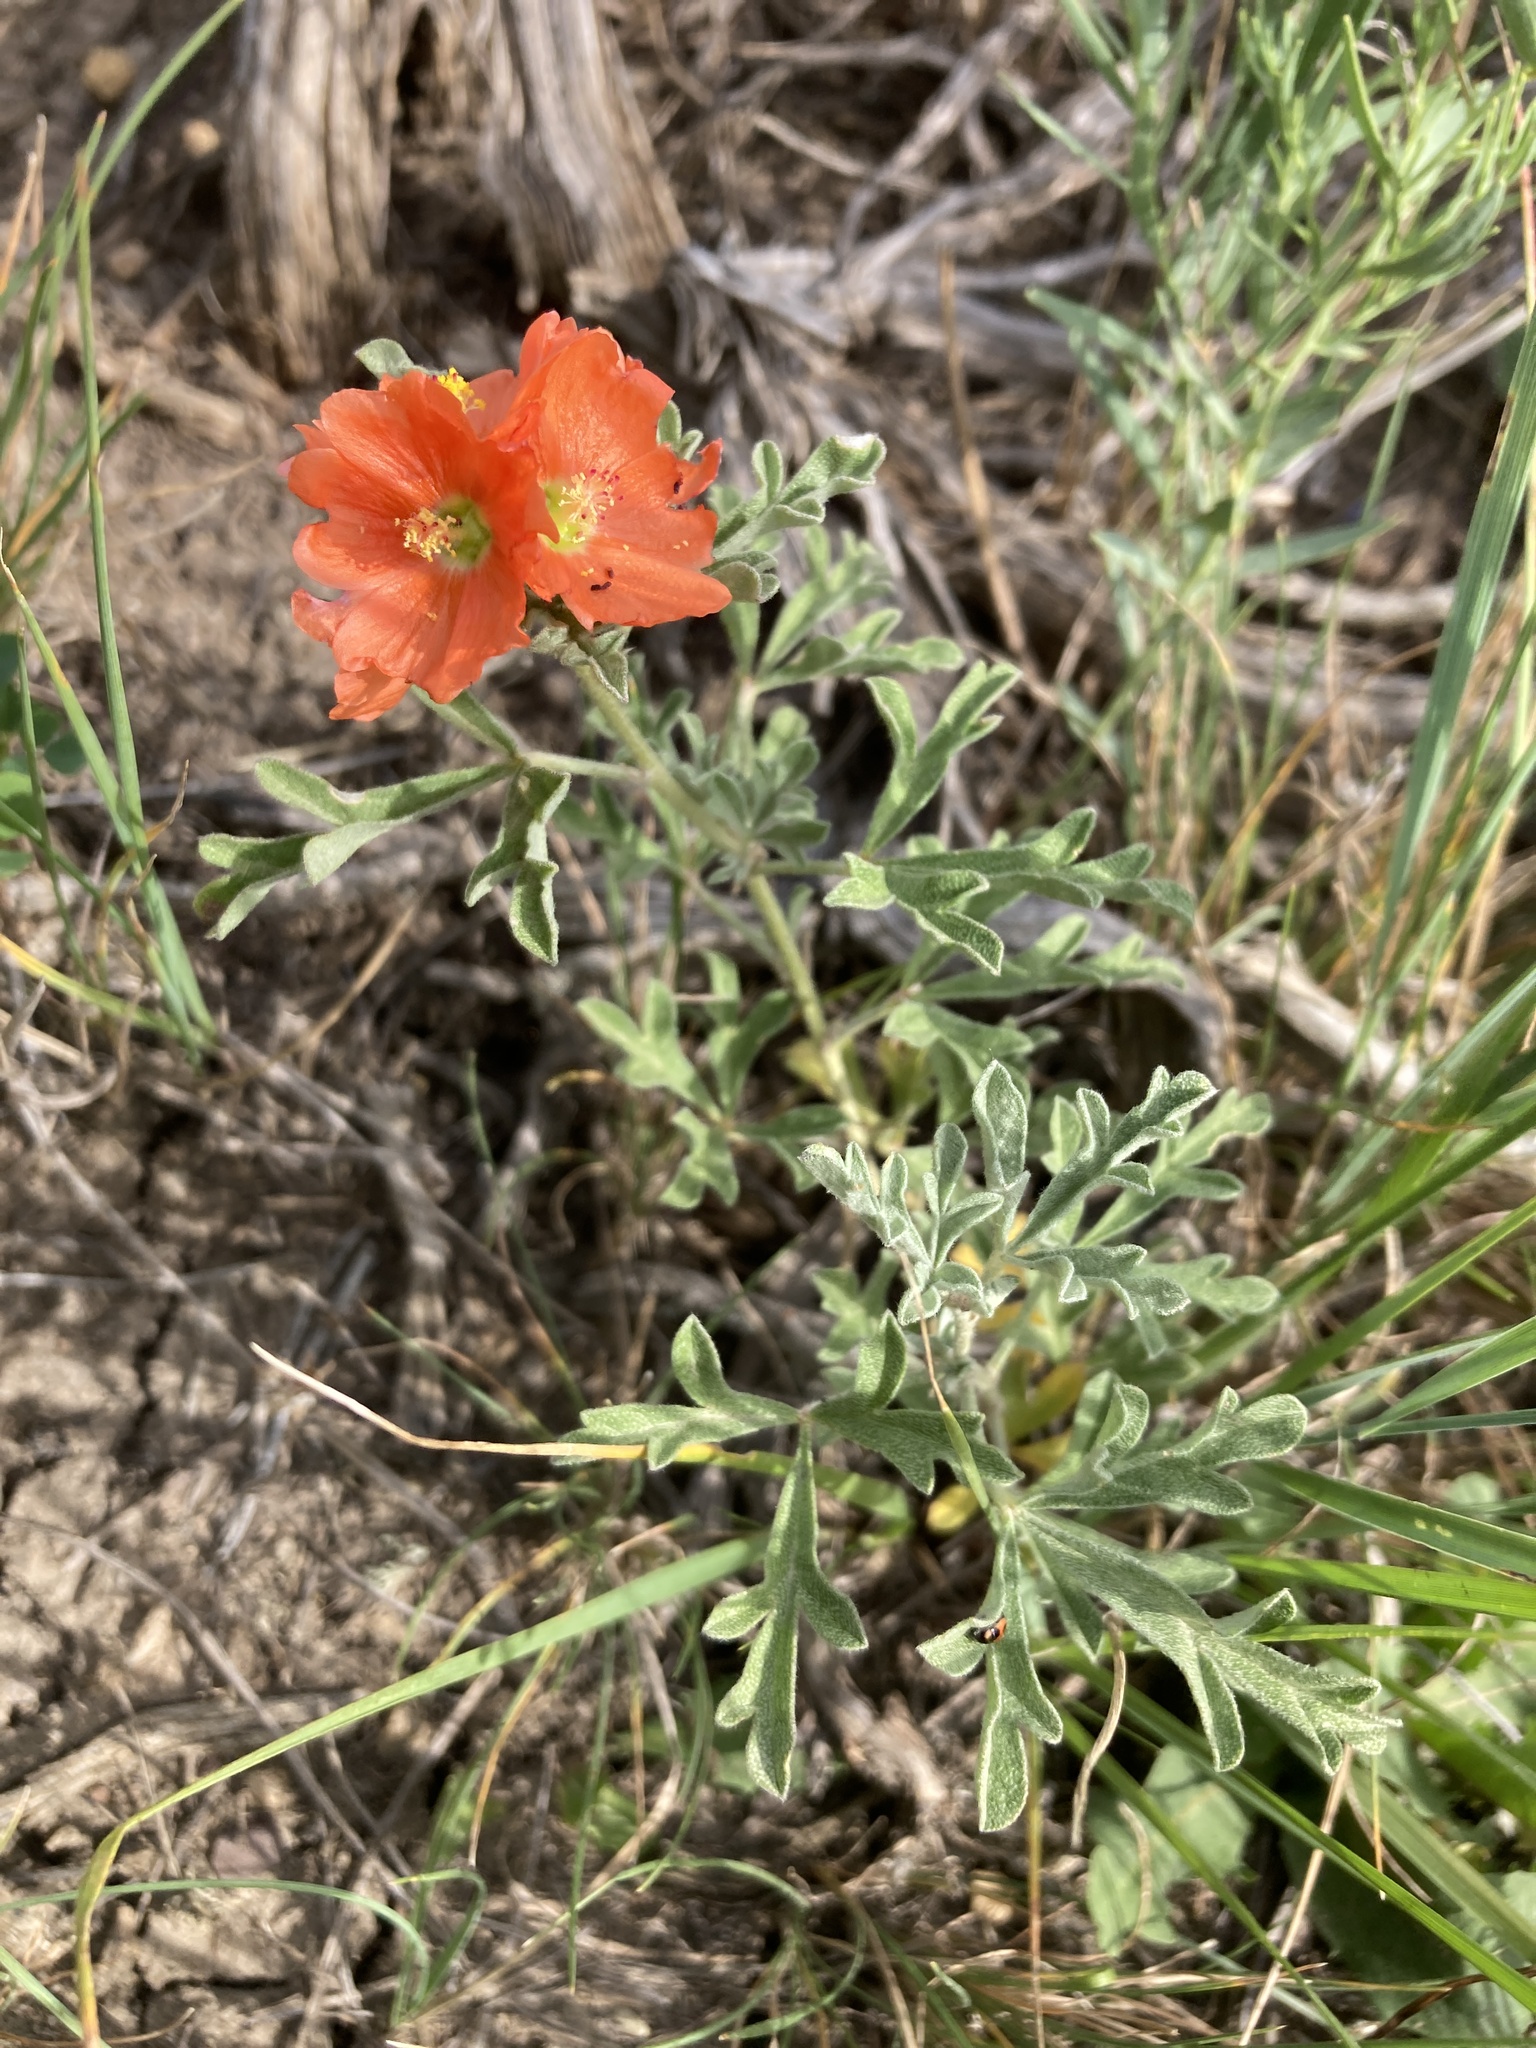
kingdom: Plantae
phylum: Tracheophyta
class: Magnoliopsida
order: Malvales
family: Malvaceae
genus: Sphaeralcea
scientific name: Sphaeralcea coccinea
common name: Moss-rose
